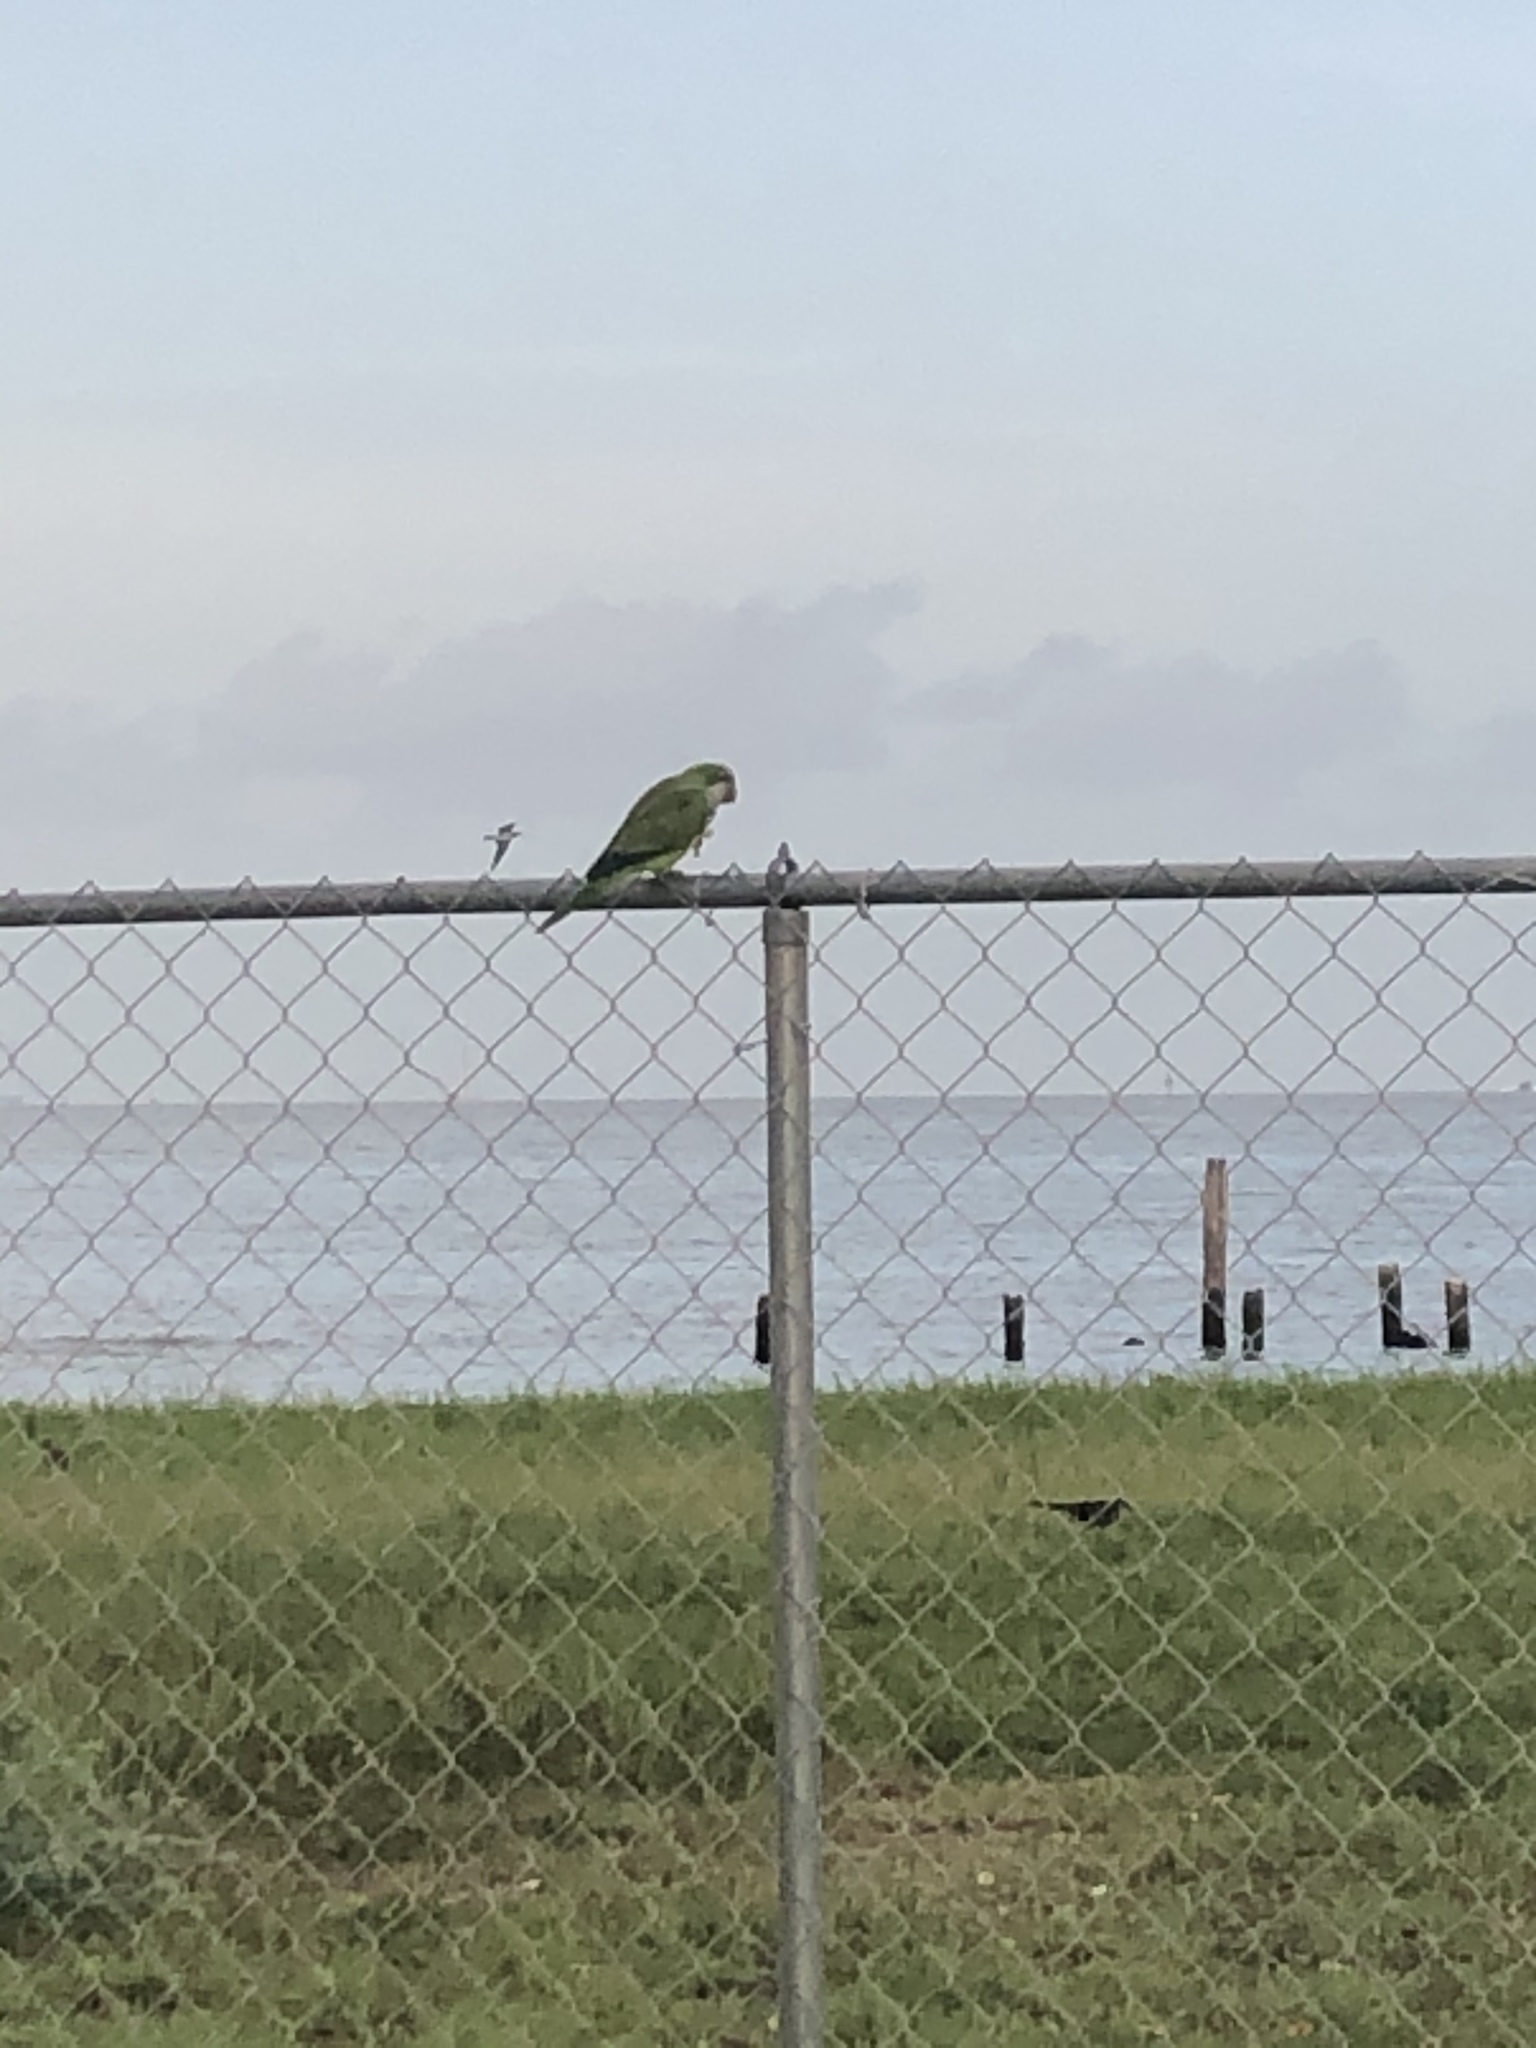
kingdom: Animalia
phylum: Chordata
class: Aves
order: Psittaciformes
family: Psittacidae
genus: Myiopsitta
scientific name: Myiopsitta monachus
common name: Monk parakeet
